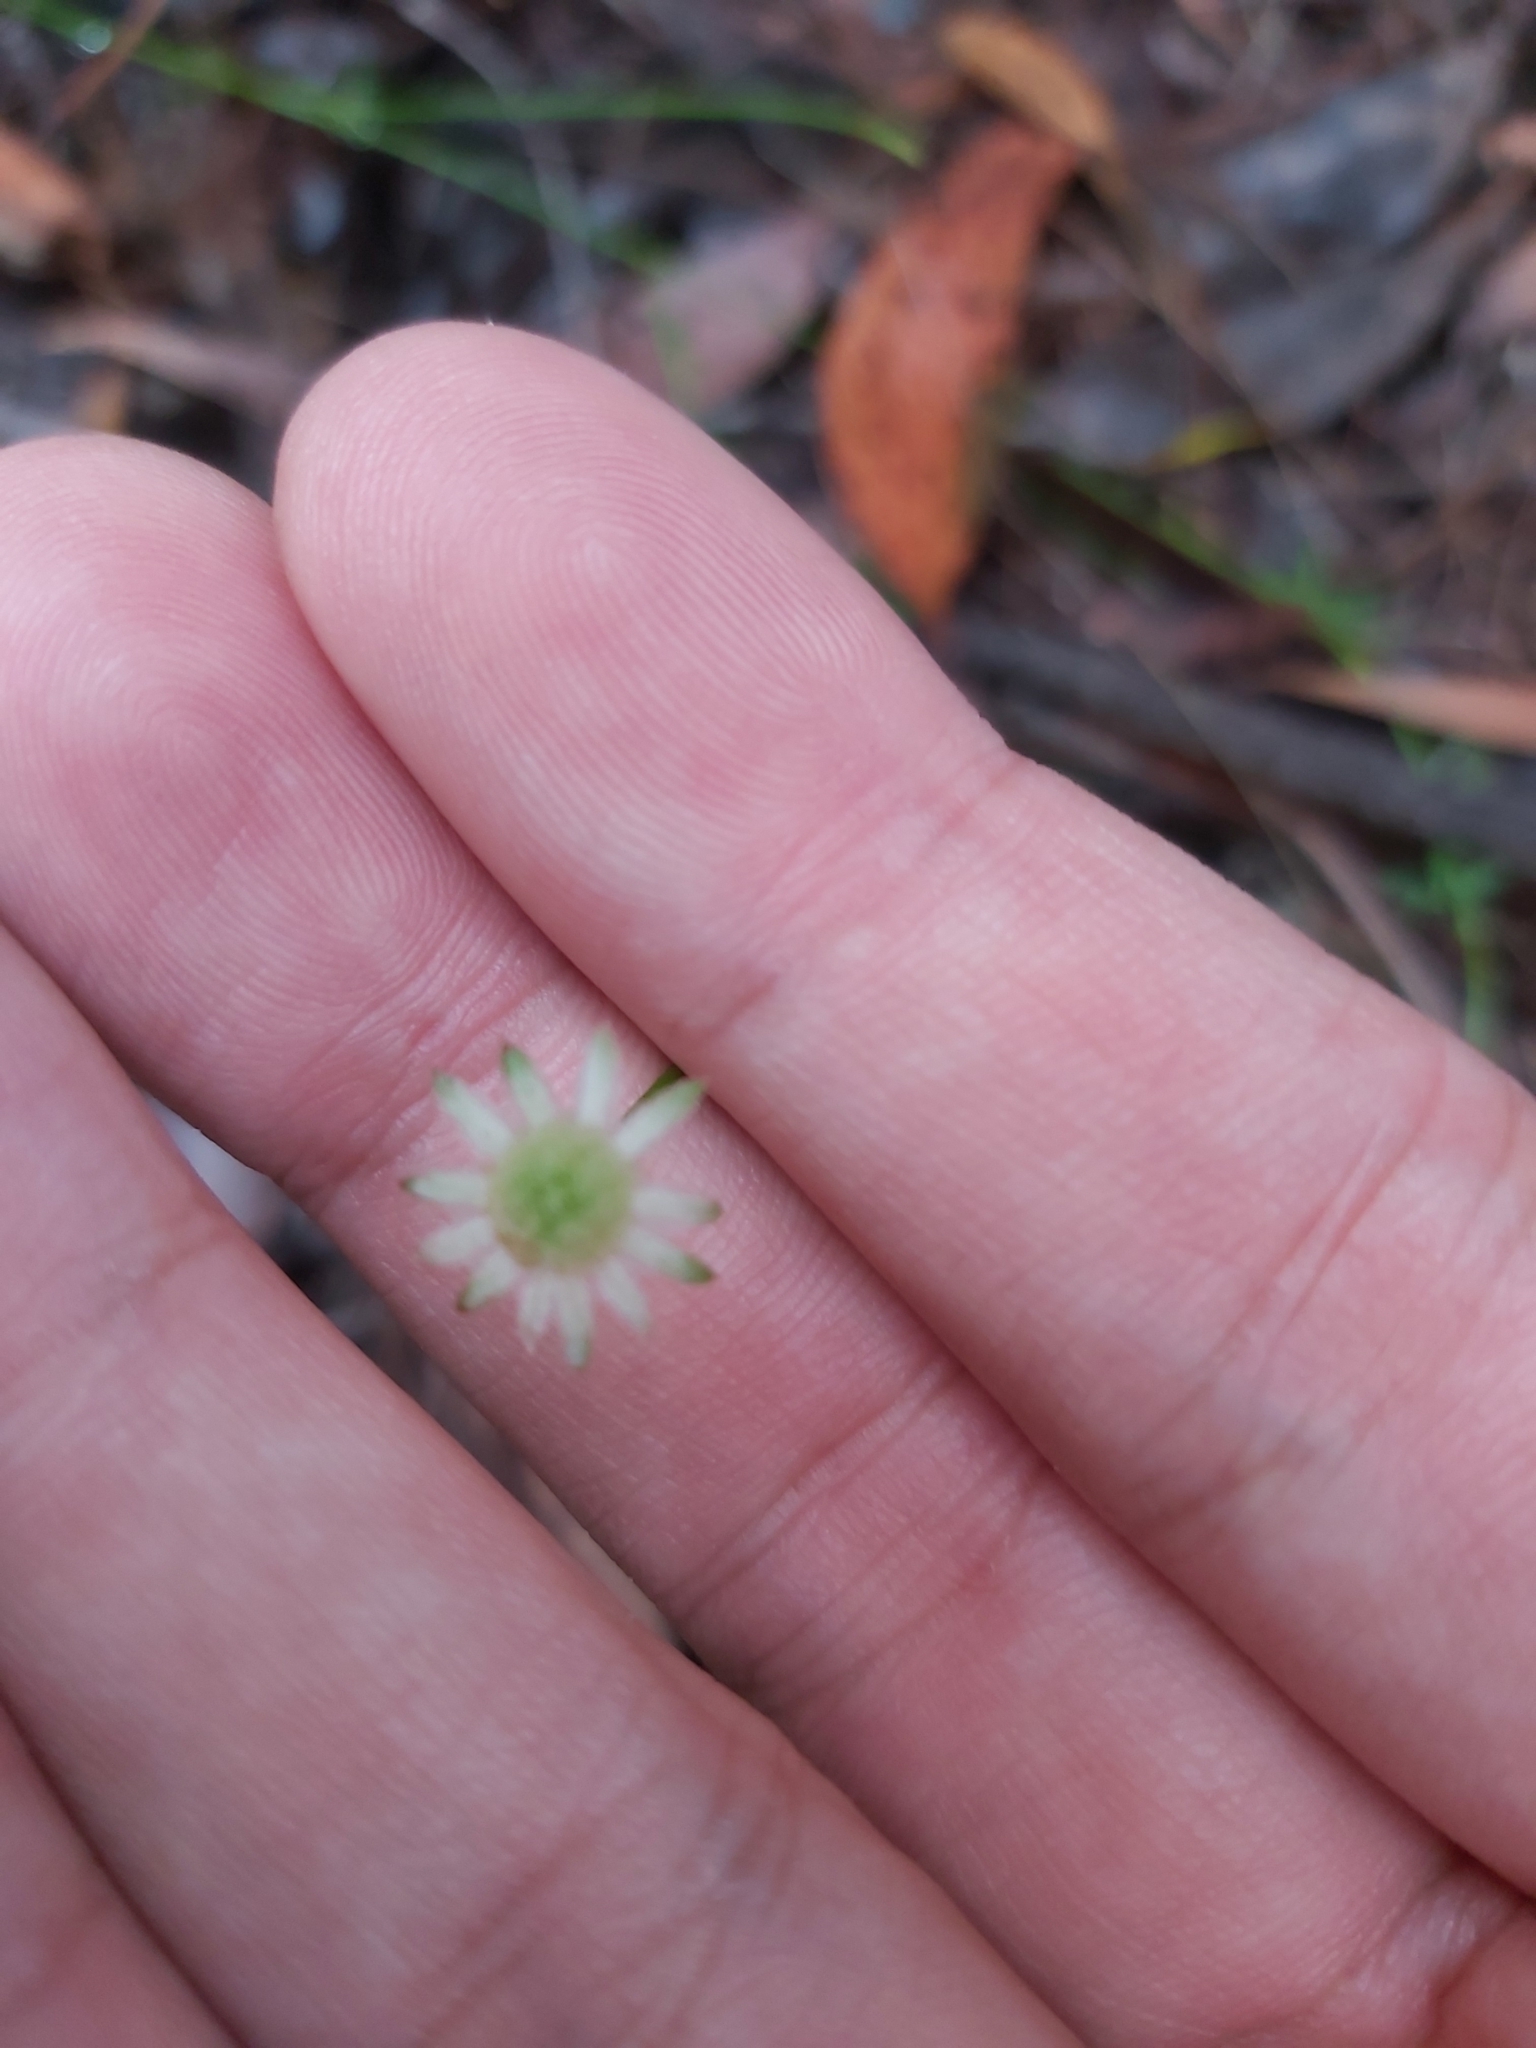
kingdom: Plantae
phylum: Tracheophyta
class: Magnoliopsida
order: Apiales
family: Apiaceae
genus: Actinotus
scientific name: Actinotus minor
